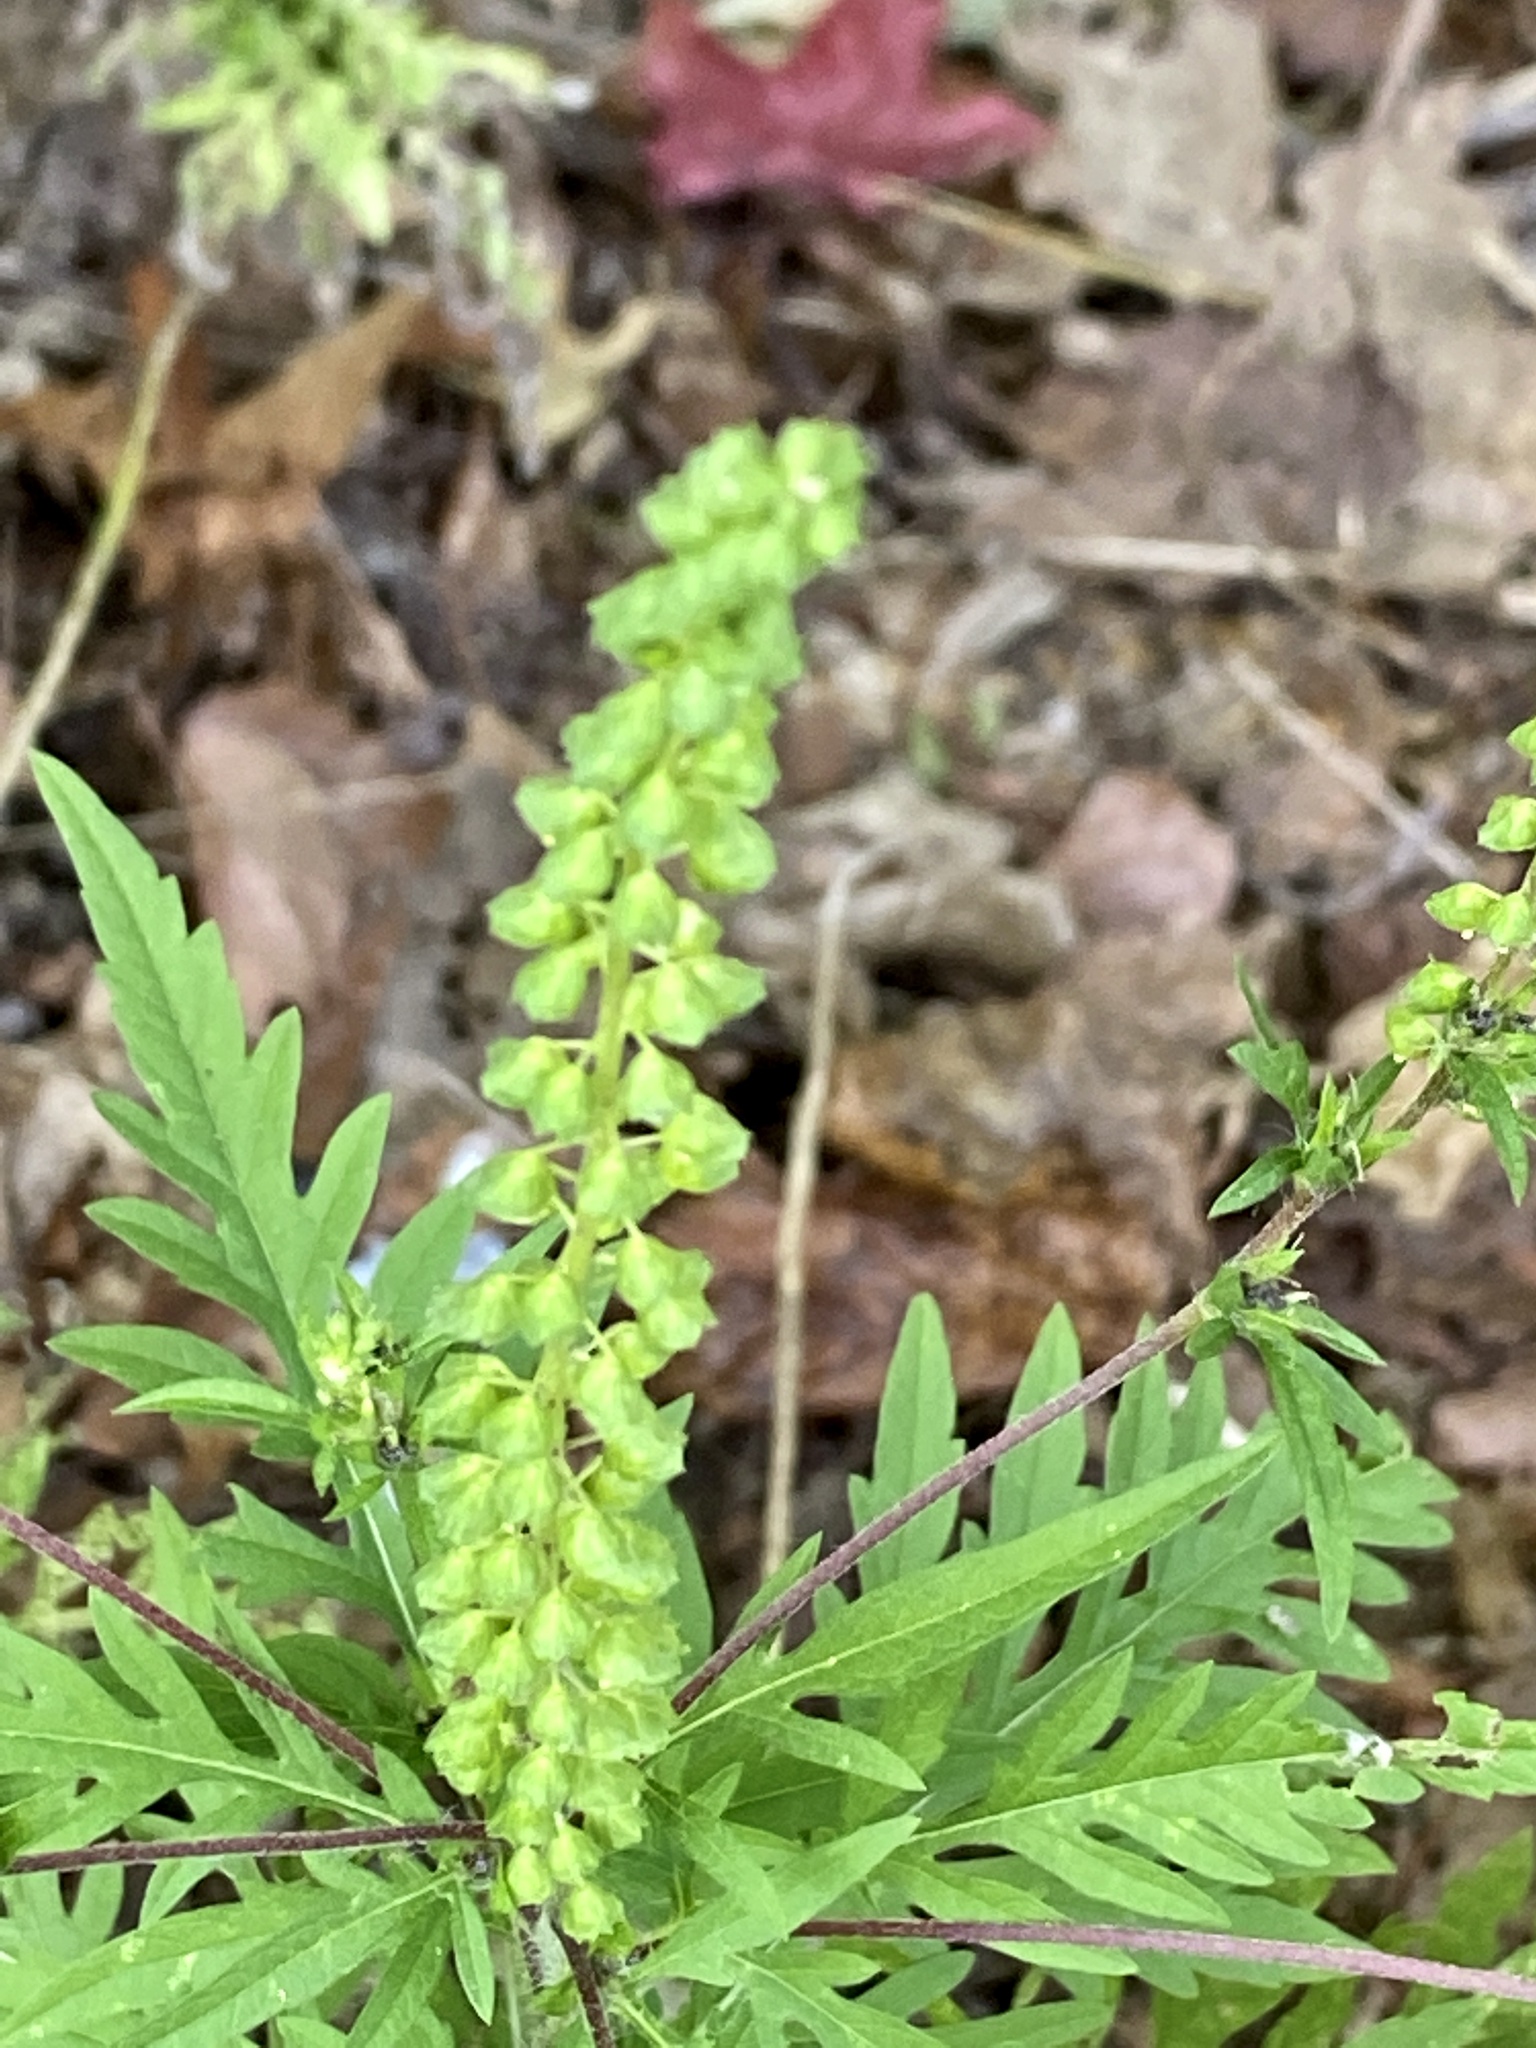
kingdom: Plantae
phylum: Tracheophyta
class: Magnoliopsida
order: Asterales
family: Asteraceae
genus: Ambrosia
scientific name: Ambrosia artemisiifolia
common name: Annual ragweed
